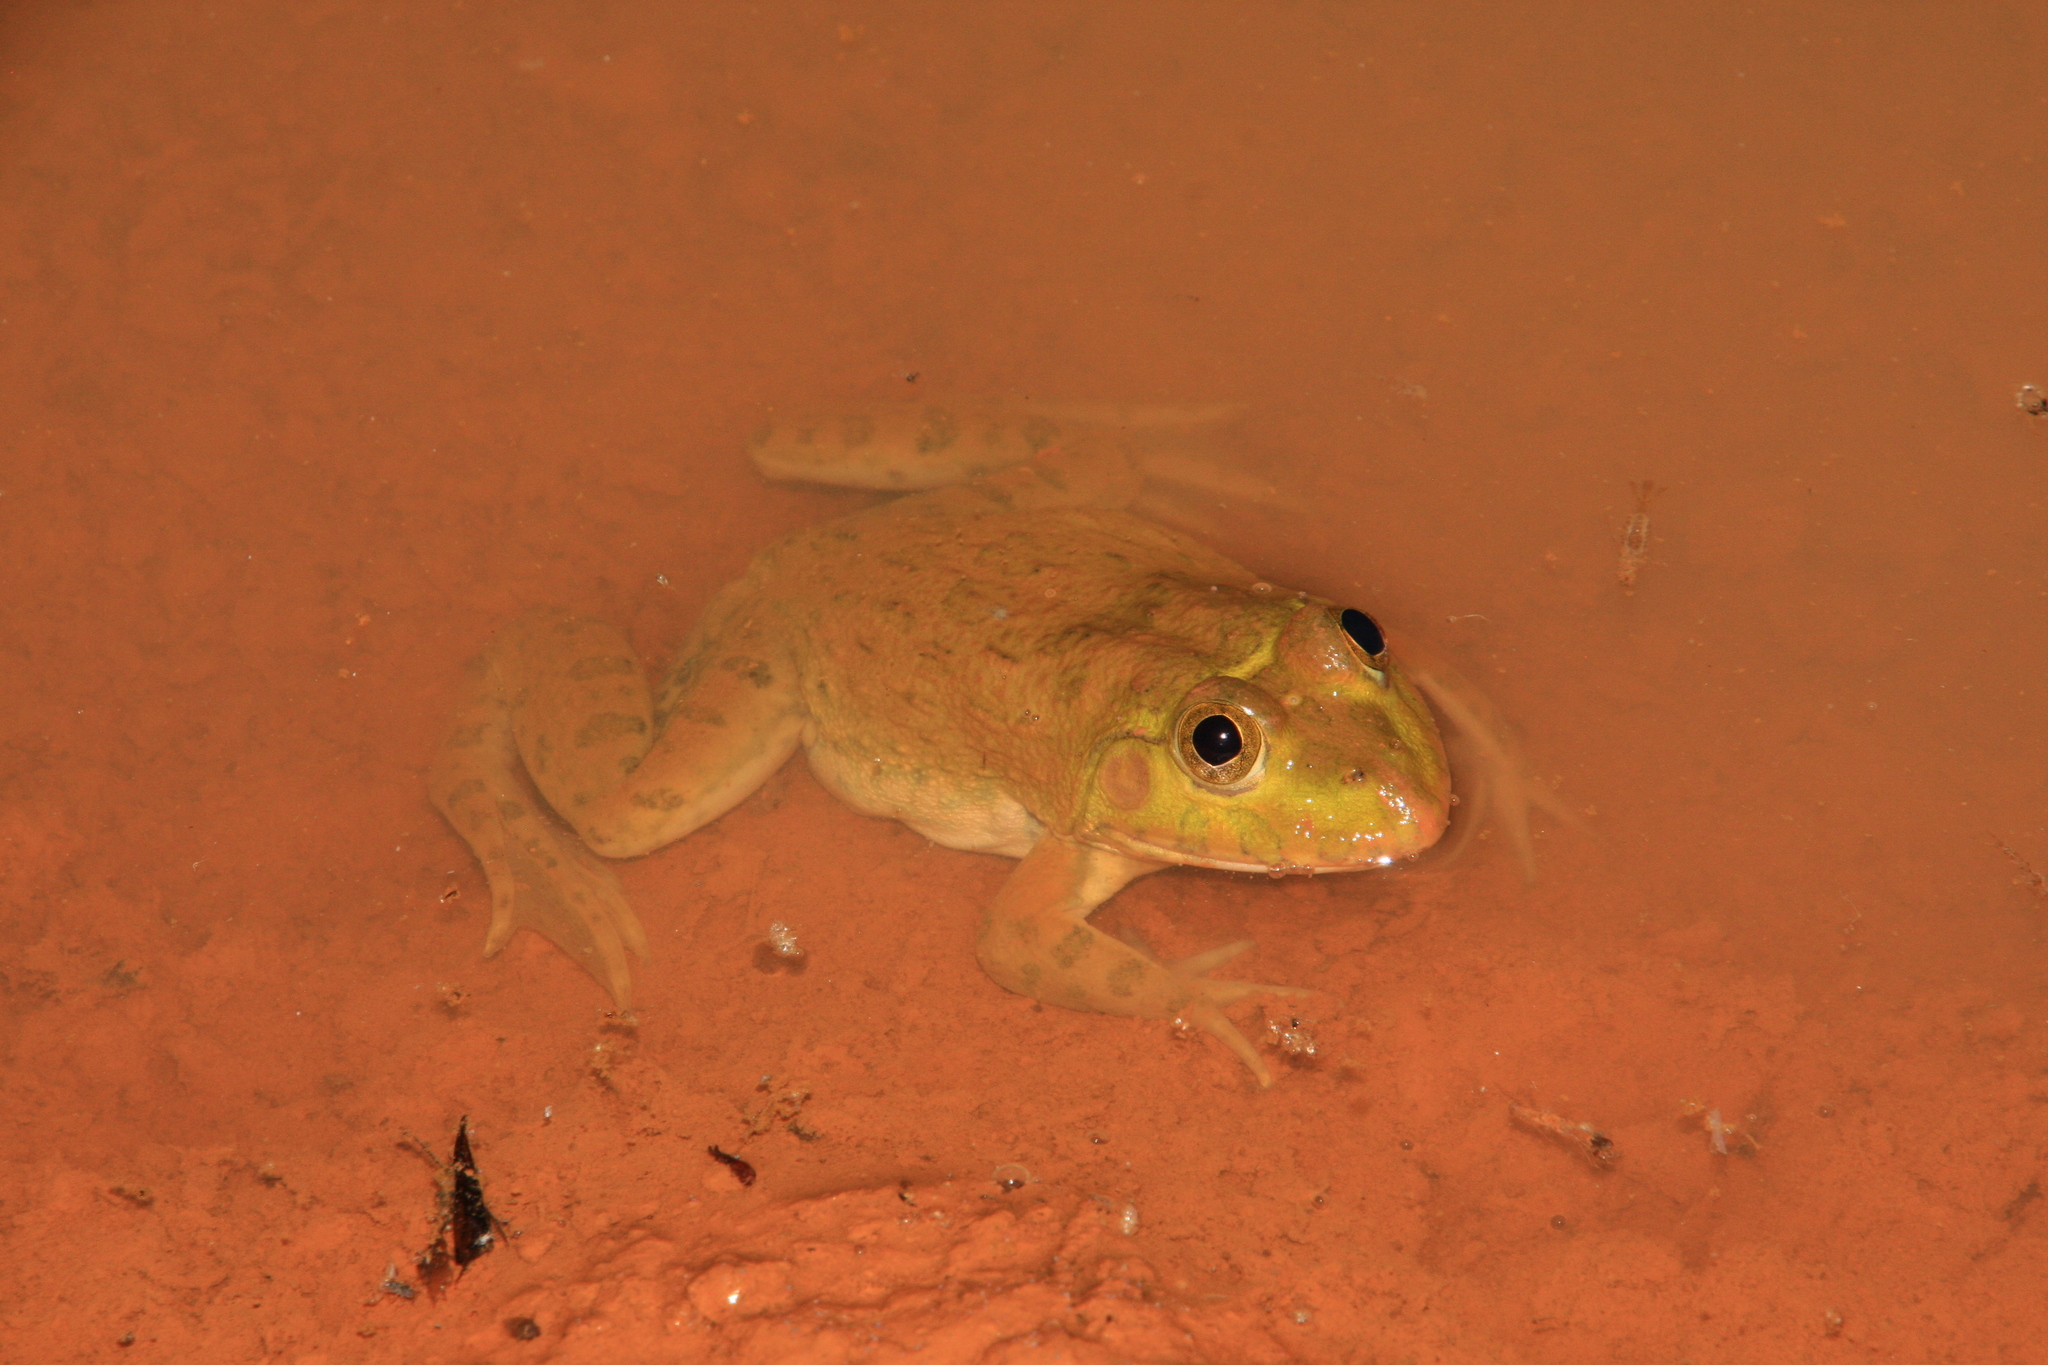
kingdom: Animalia
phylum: Chordata
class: Amphibia
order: Anura
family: Dicroglossidae
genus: Hoplobatrachus
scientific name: Hoplobatrachus occipitalis
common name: Eastern groove-crowned bullfrog
